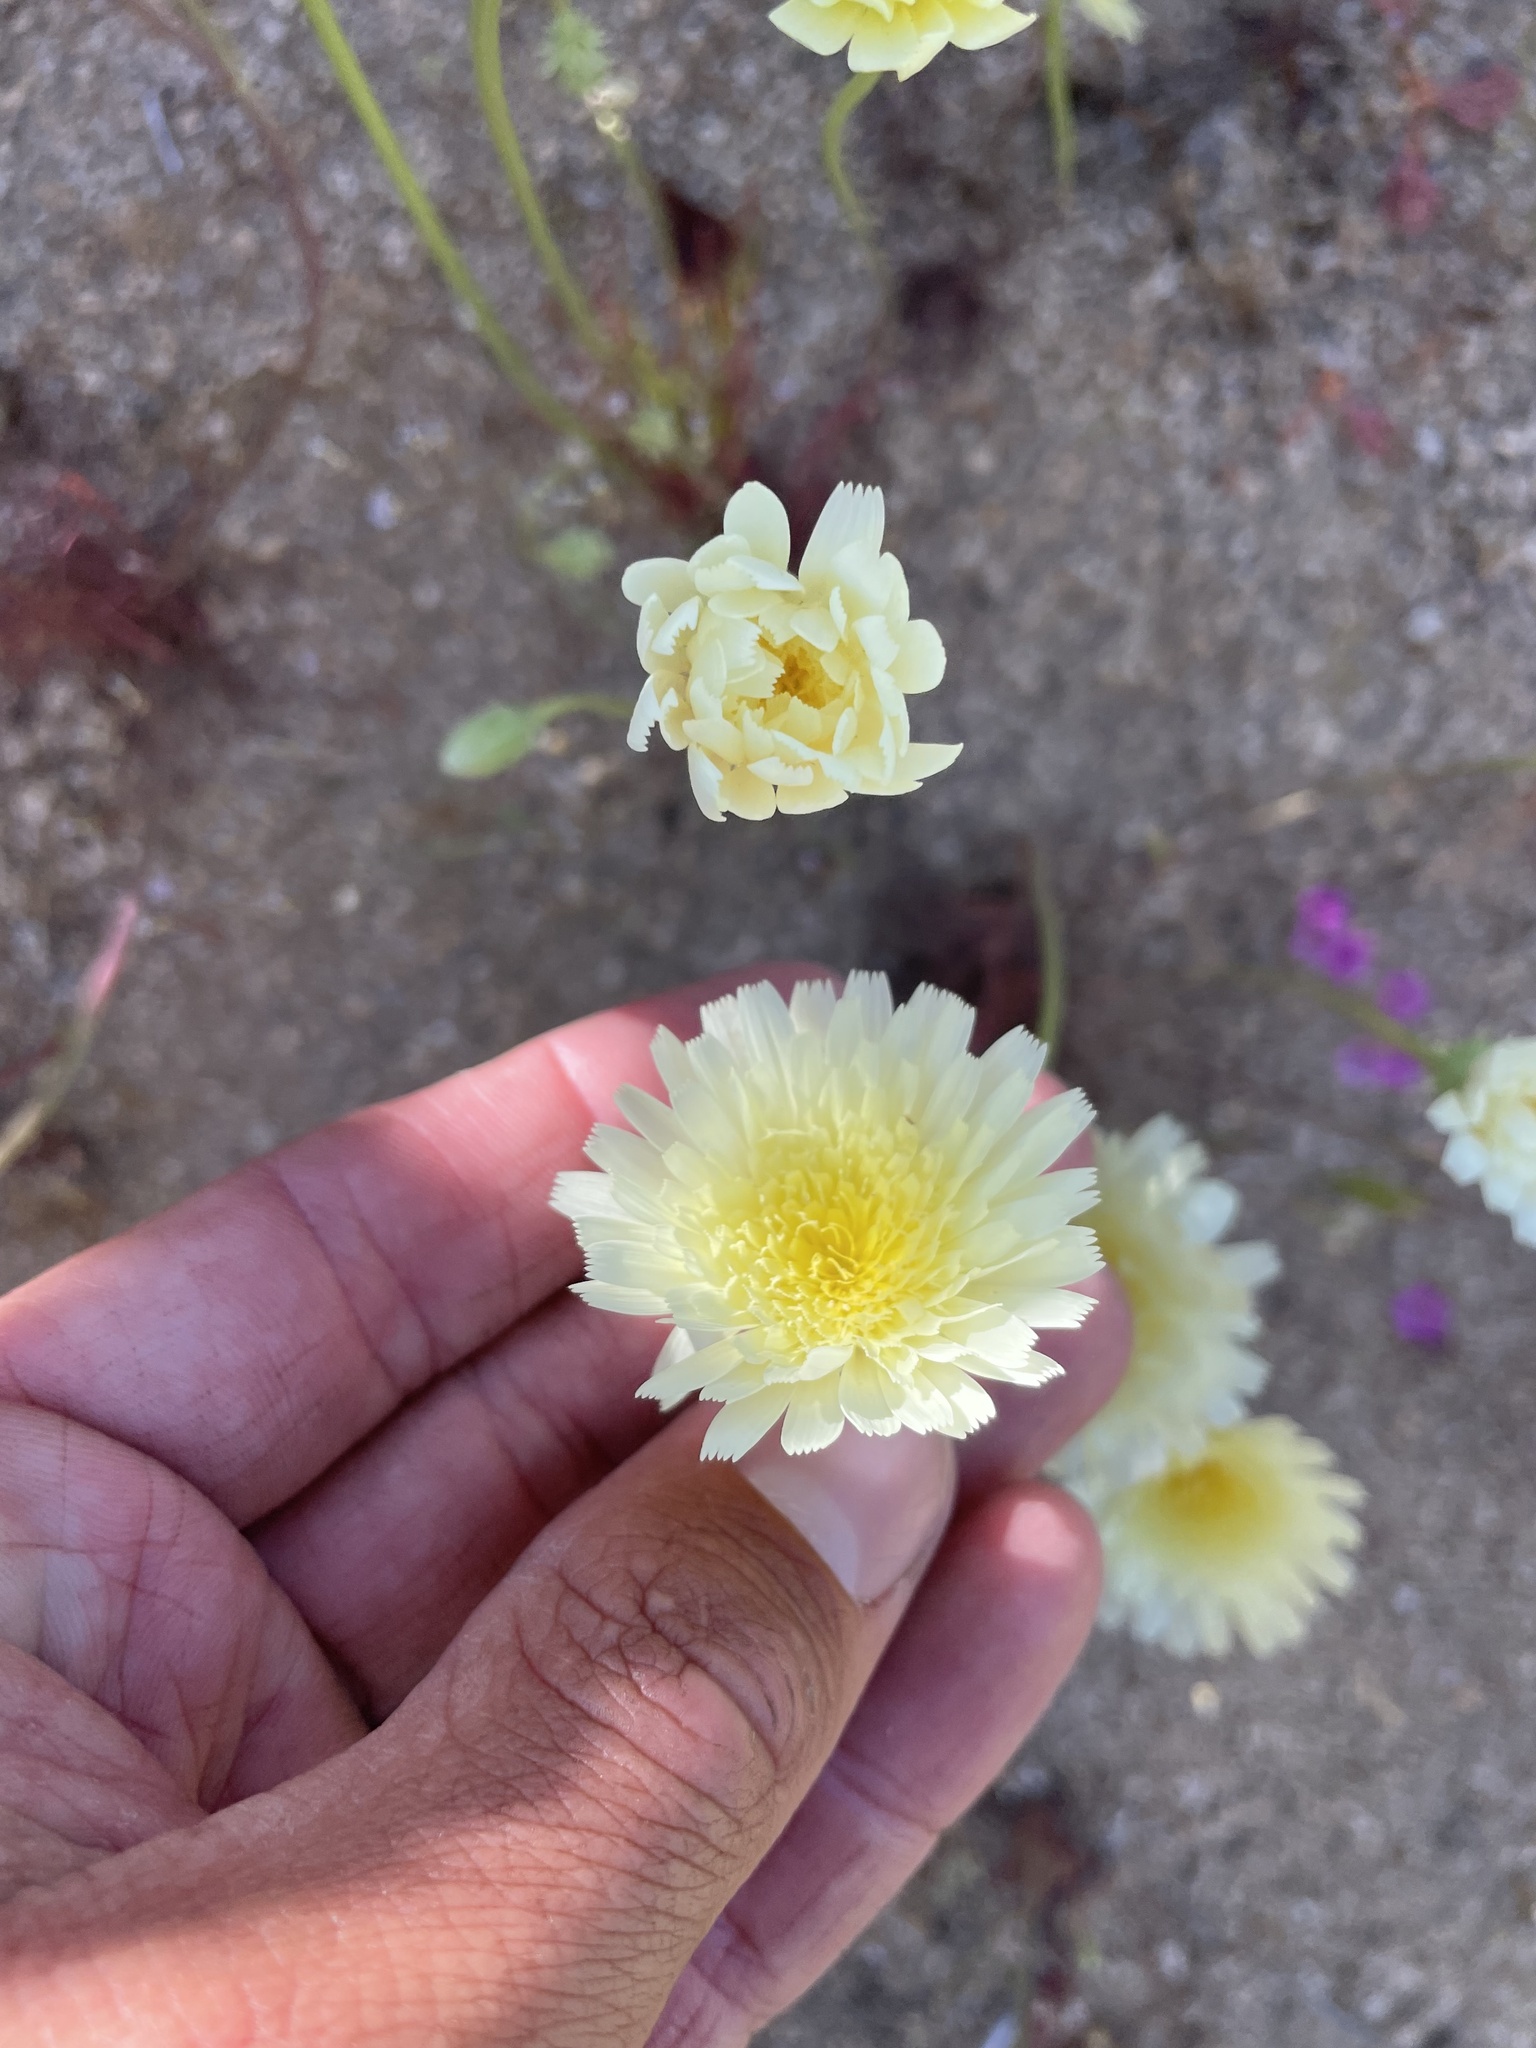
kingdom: Plantae
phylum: Tracheophyta
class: Magnoliopsida
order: Asterales
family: Asteraceae
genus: Malacothrix
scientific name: Malacothrix glabrata
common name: Smooth desert-dandelion
